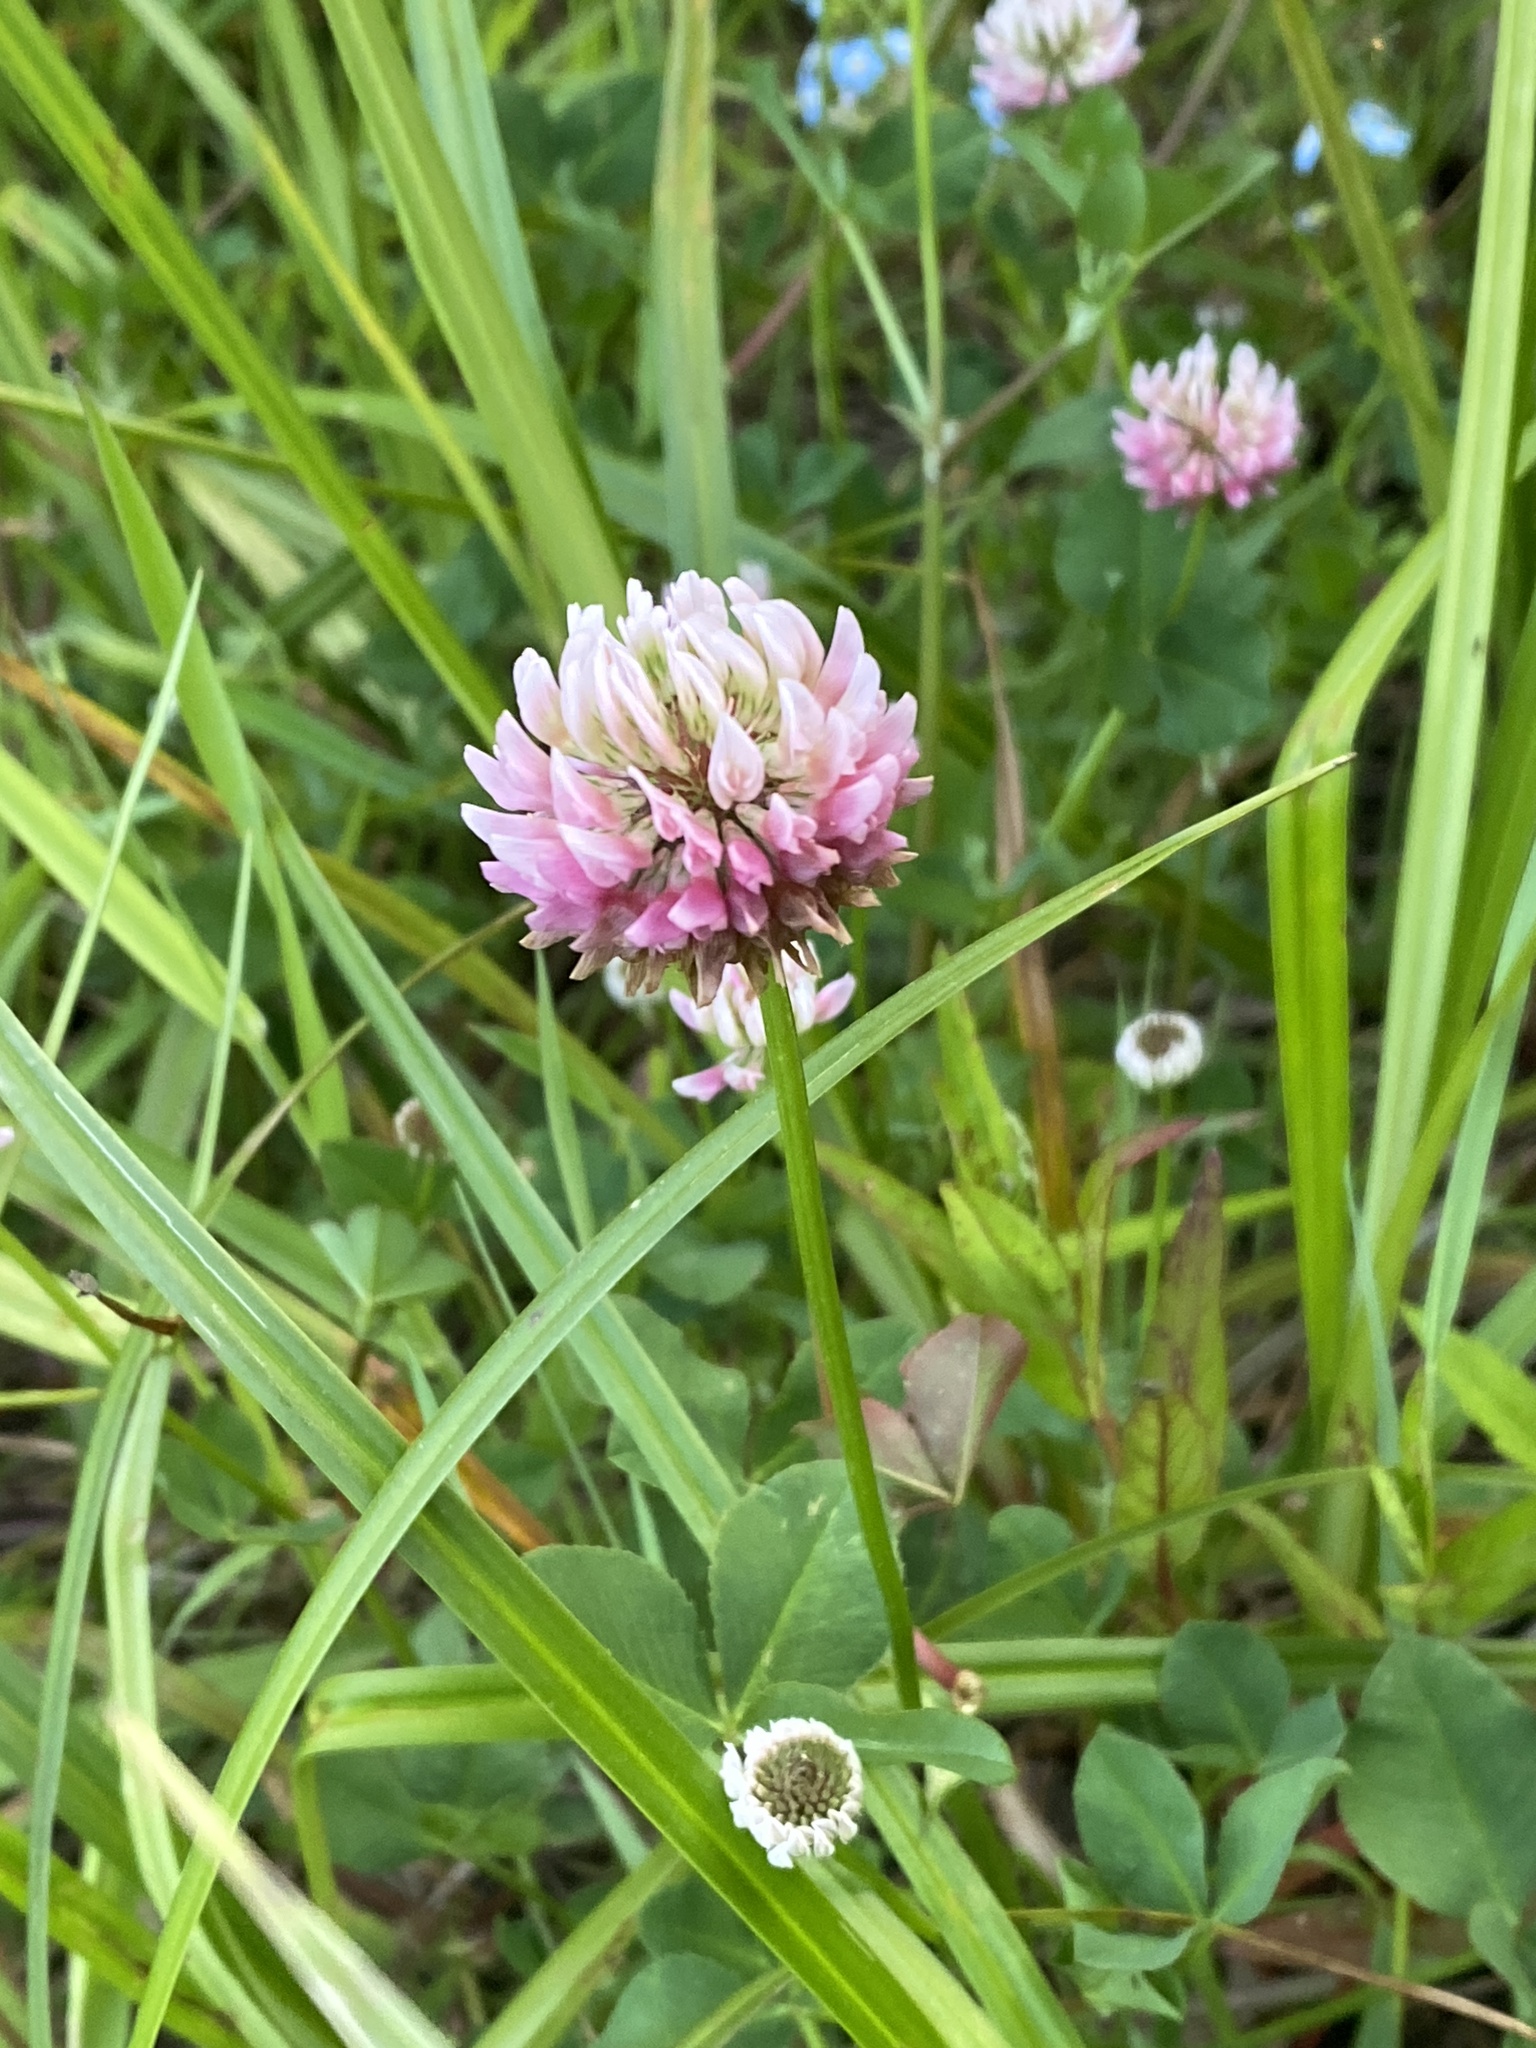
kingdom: Plantae
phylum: Tracheophyta
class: Magnoliopsida
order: Fabales
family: Fabaceae
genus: Trifolium
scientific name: Trifolium hybridum
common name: Alsike clover
